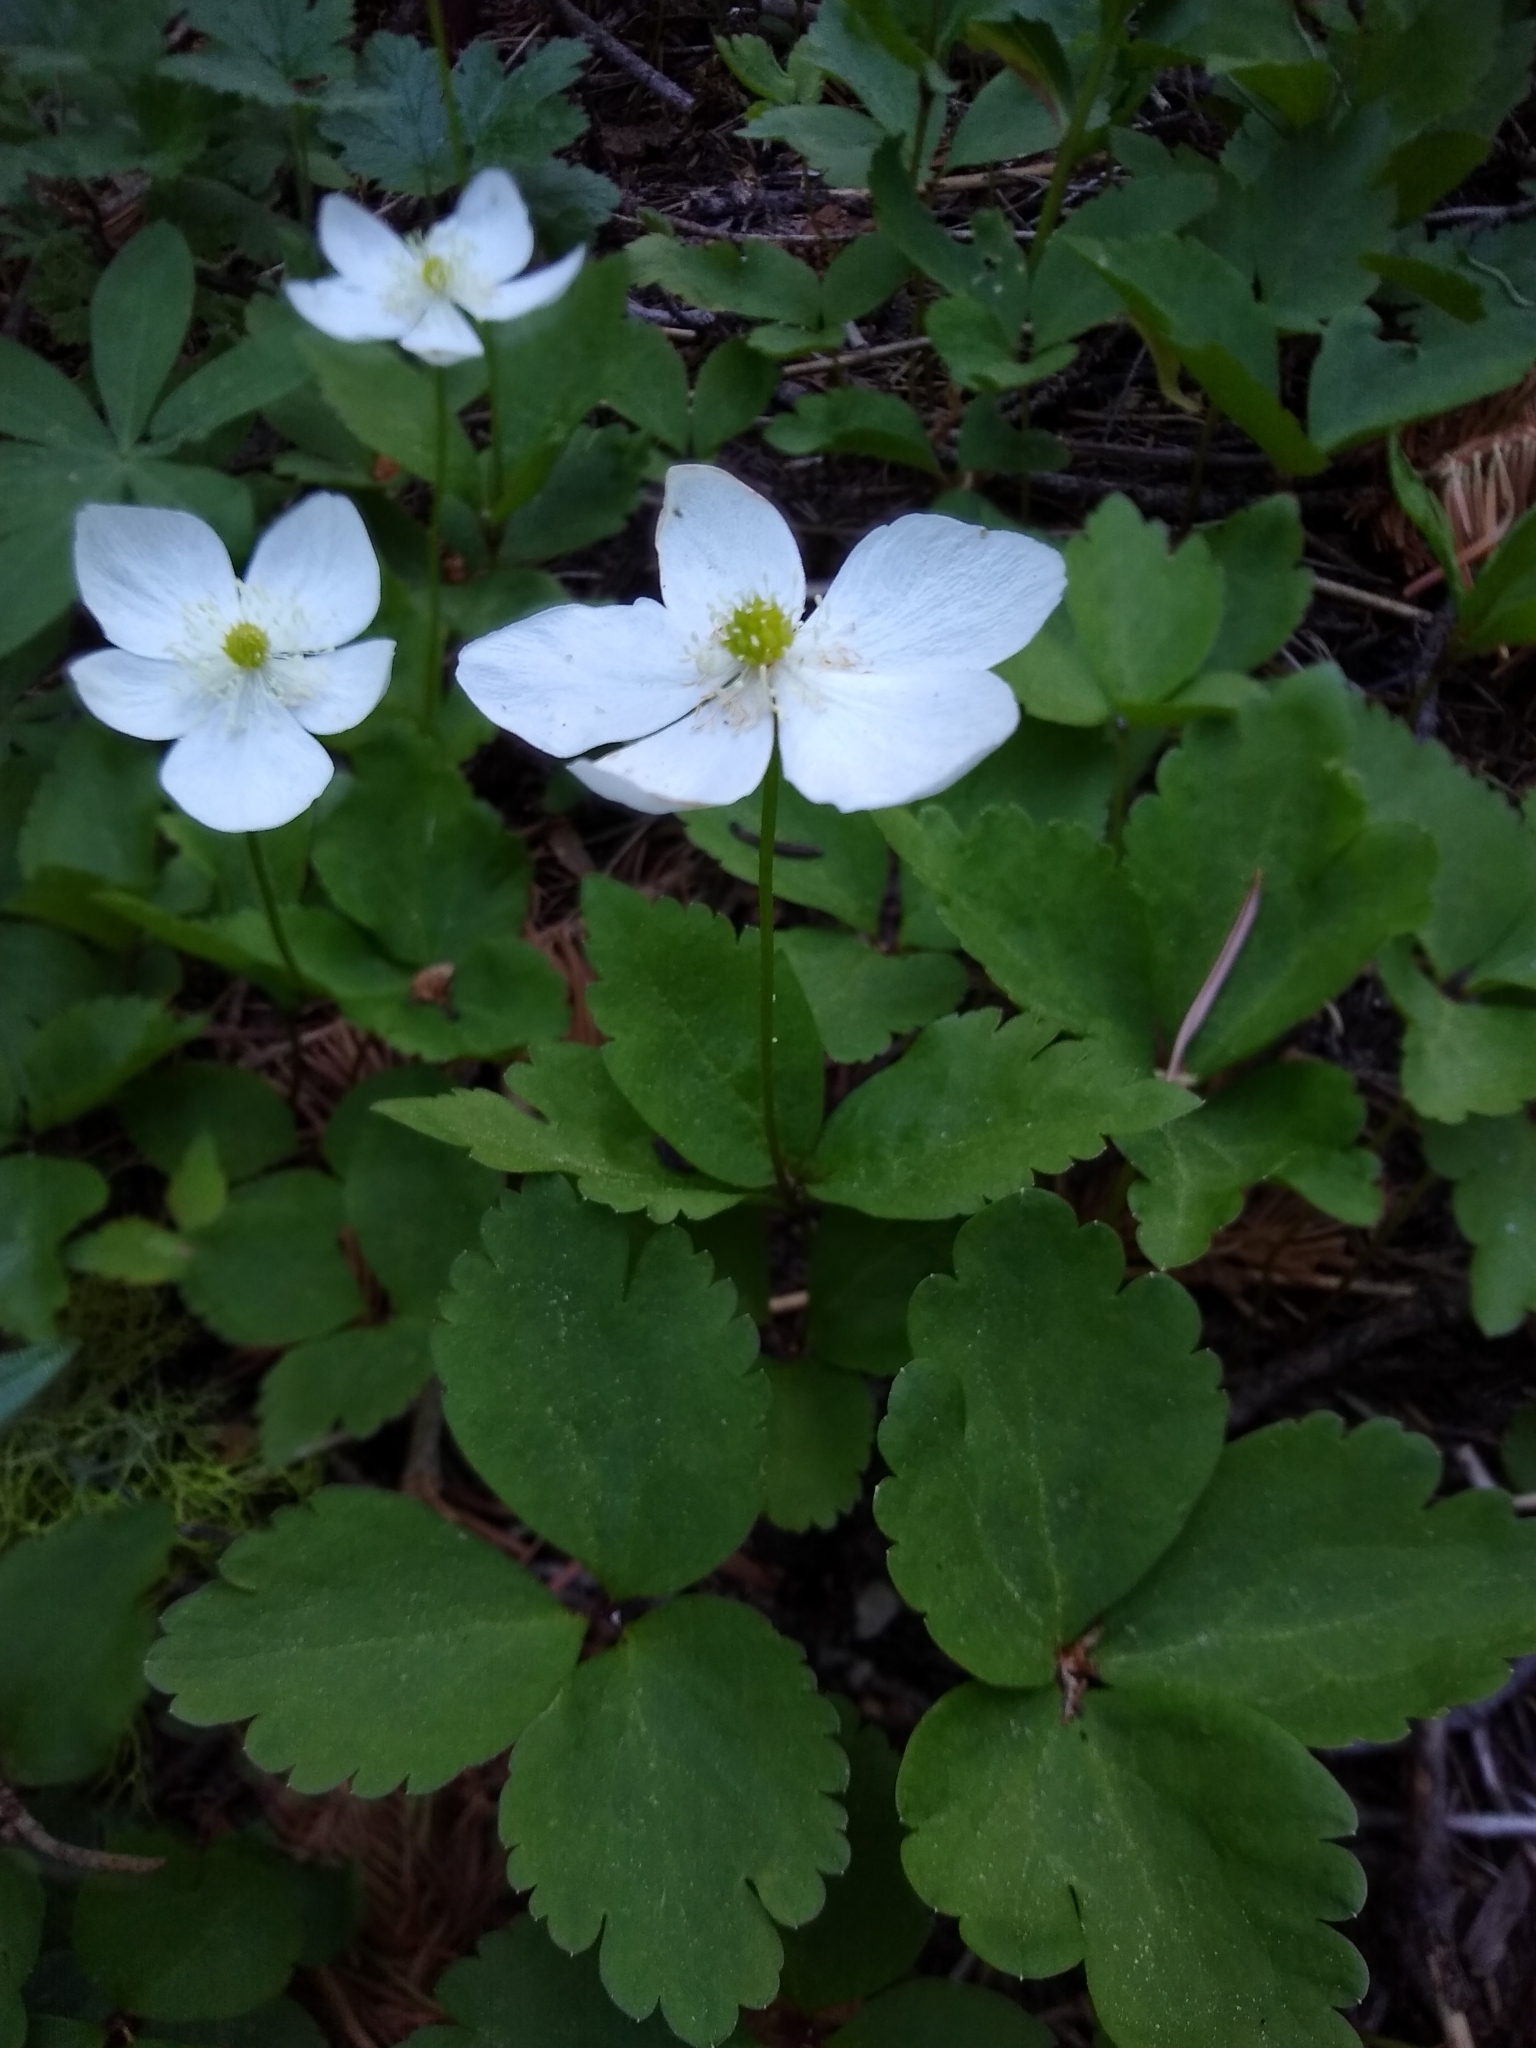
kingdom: Plantae
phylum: Tracheophyta
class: Magnoliopsida
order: Ranunculales
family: Ranunculaceae
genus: Anemonastrum
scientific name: Anemonastrum deltoideum
